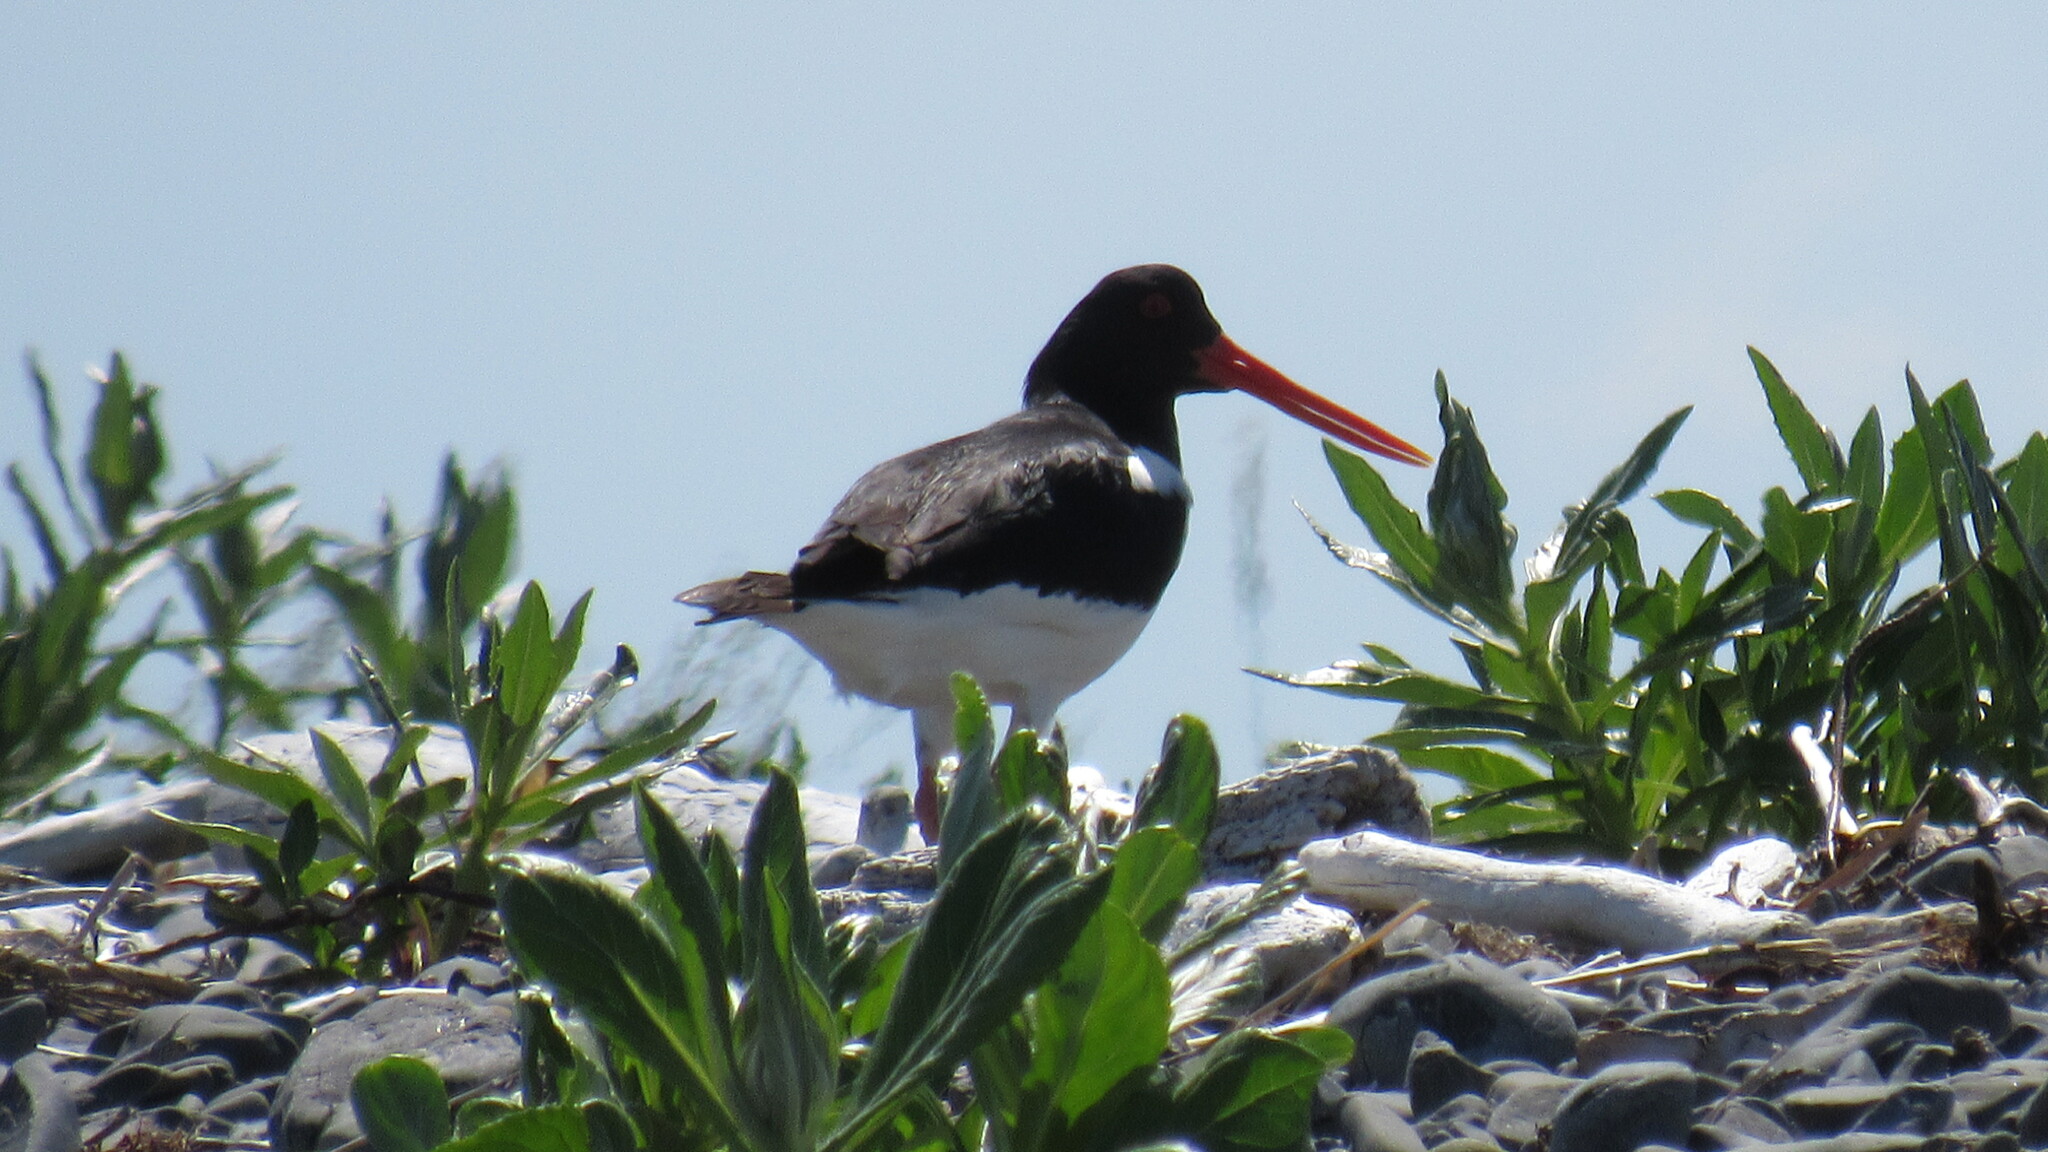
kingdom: Animalia
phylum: Chordata
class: Aves
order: Charadriiformes
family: Haematopodidae
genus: Haematopus
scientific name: Haematopus ostralegus
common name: Eurasian oystercatcher
